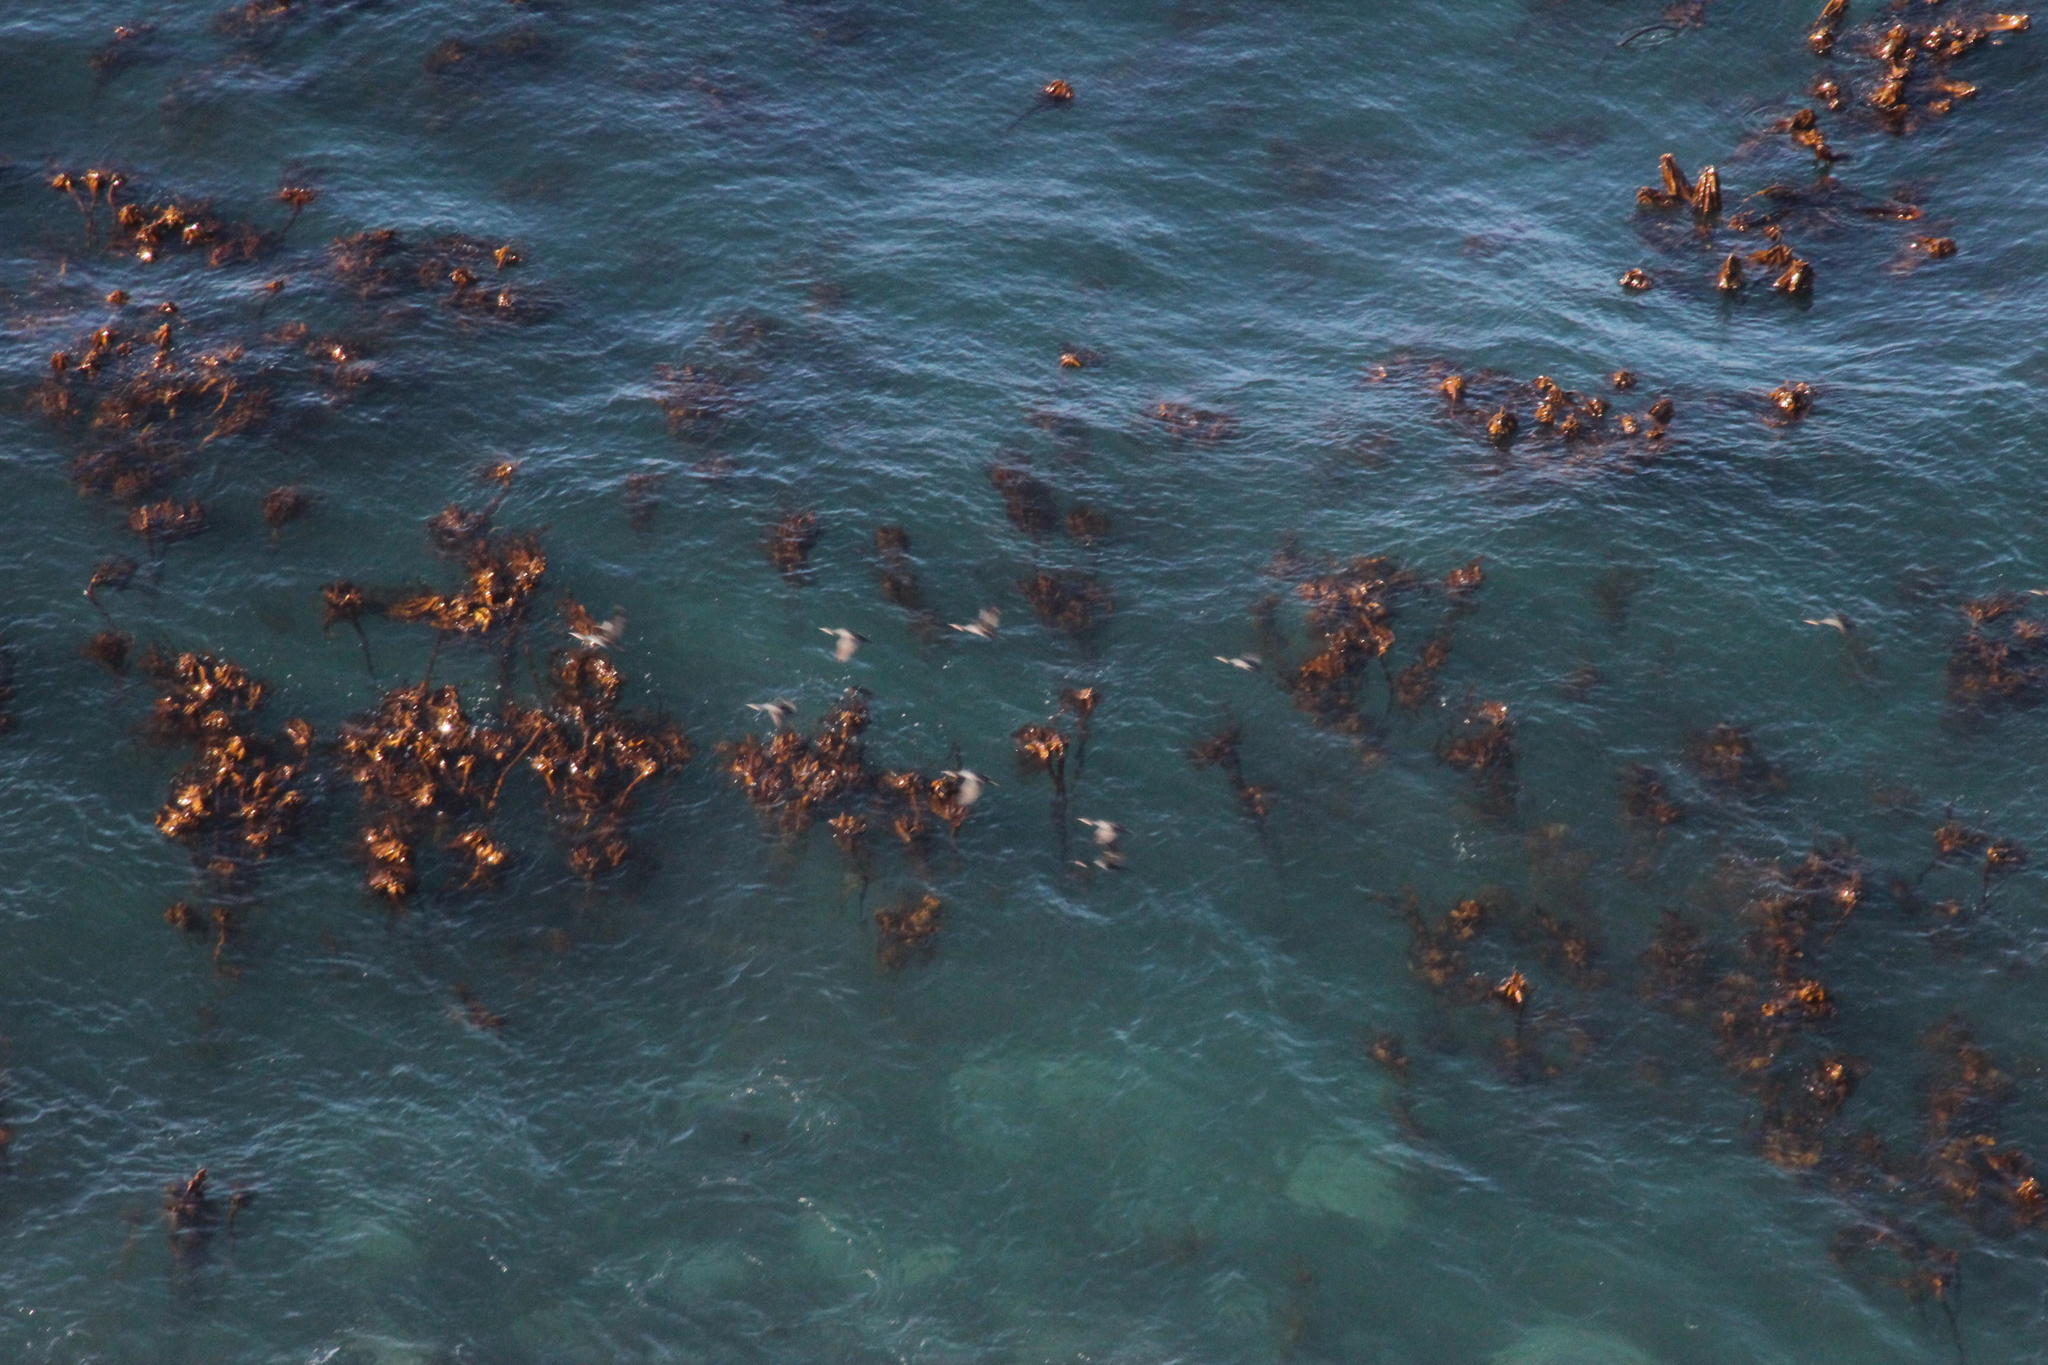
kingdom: Chromista
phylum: Ochrophyta
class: Phaeophyceae
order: Laminariales
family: Lessoniaceae
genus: Ecklonia
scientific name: Ecklonia
